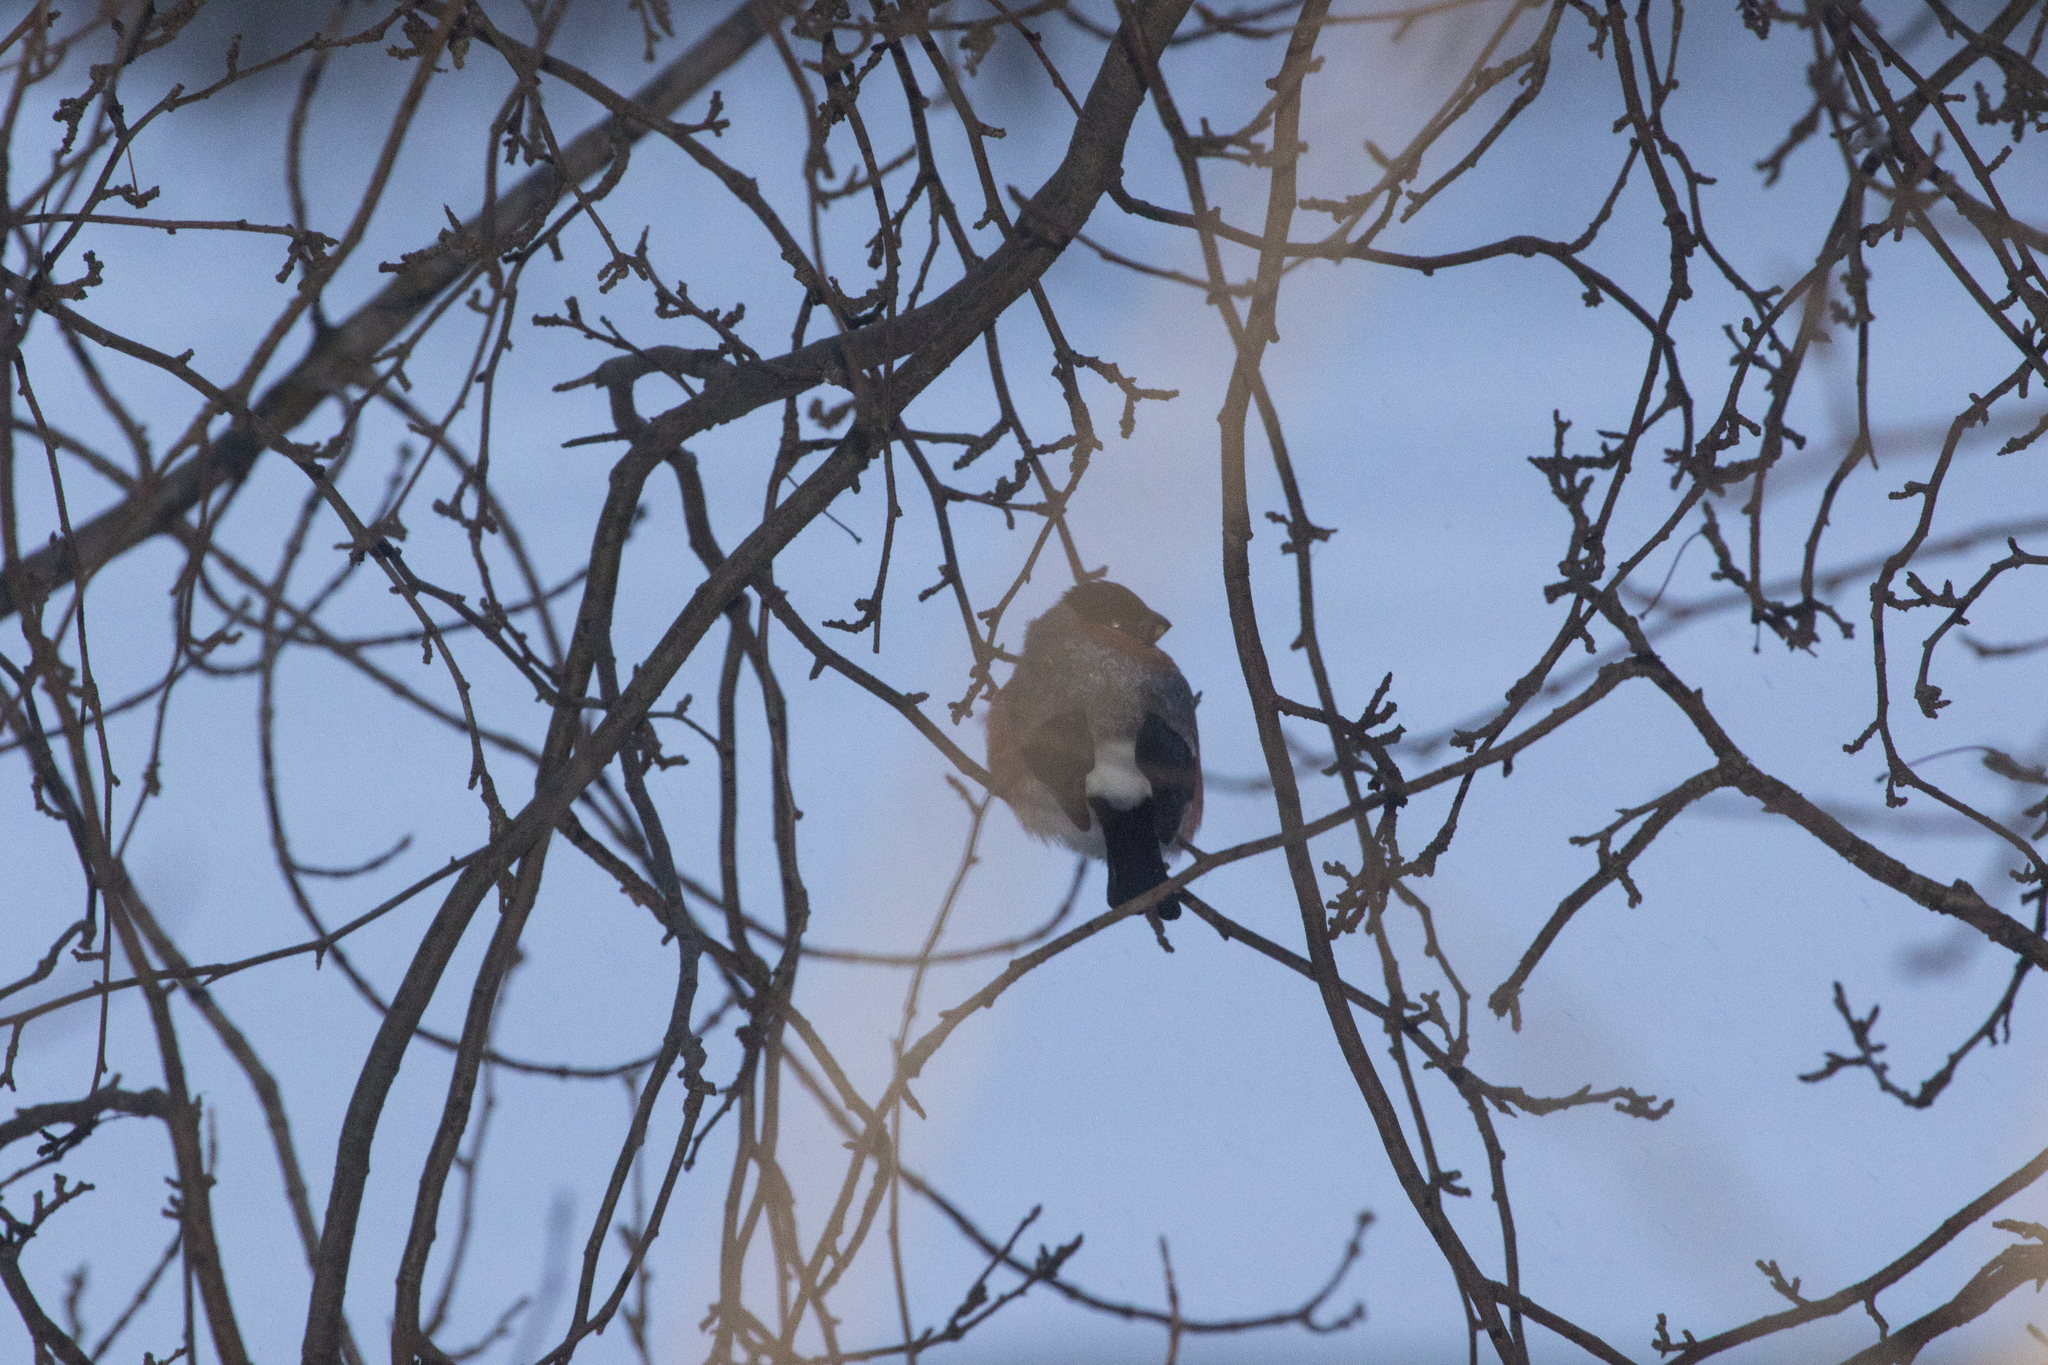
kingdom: Animalia
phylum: Chordata
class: Aves
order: Passeriformes
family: Fringillidae
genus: Pyrrhula
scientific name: Pyrrhula pyrrhula
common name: Eurasian bullfinch
